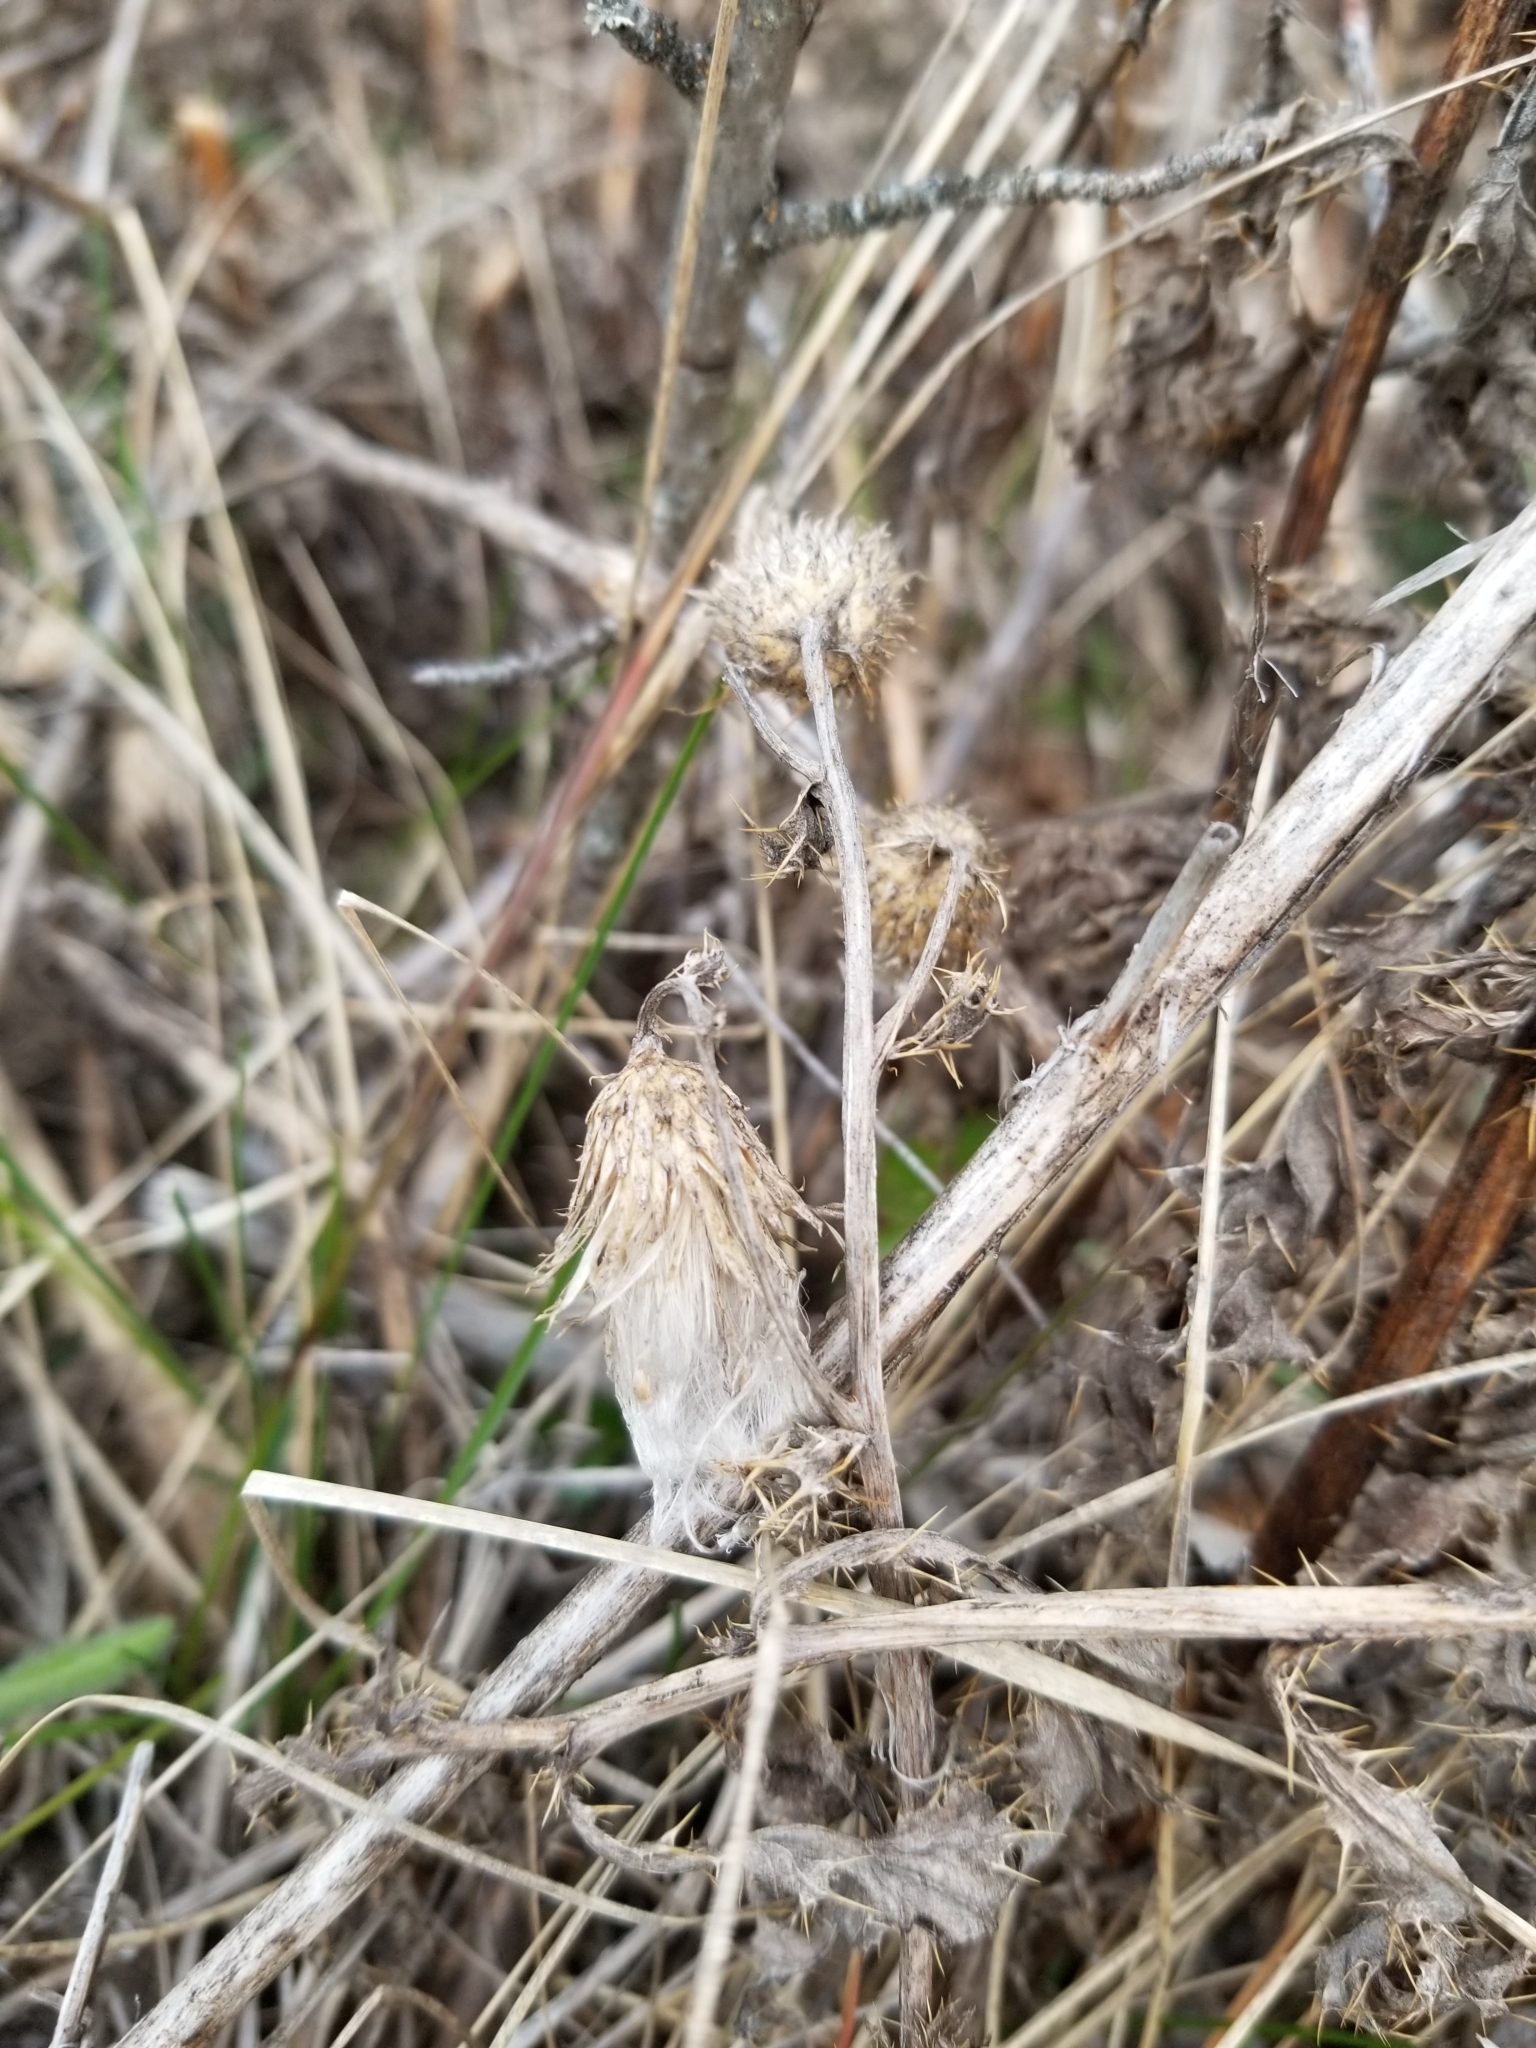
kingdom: Plantae
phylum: Tracheophyta
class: Magnoliopsida
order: Asterales
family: Asteraceae
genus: Cirsium
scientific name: Cirsium arvense
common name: Creeping thistle
